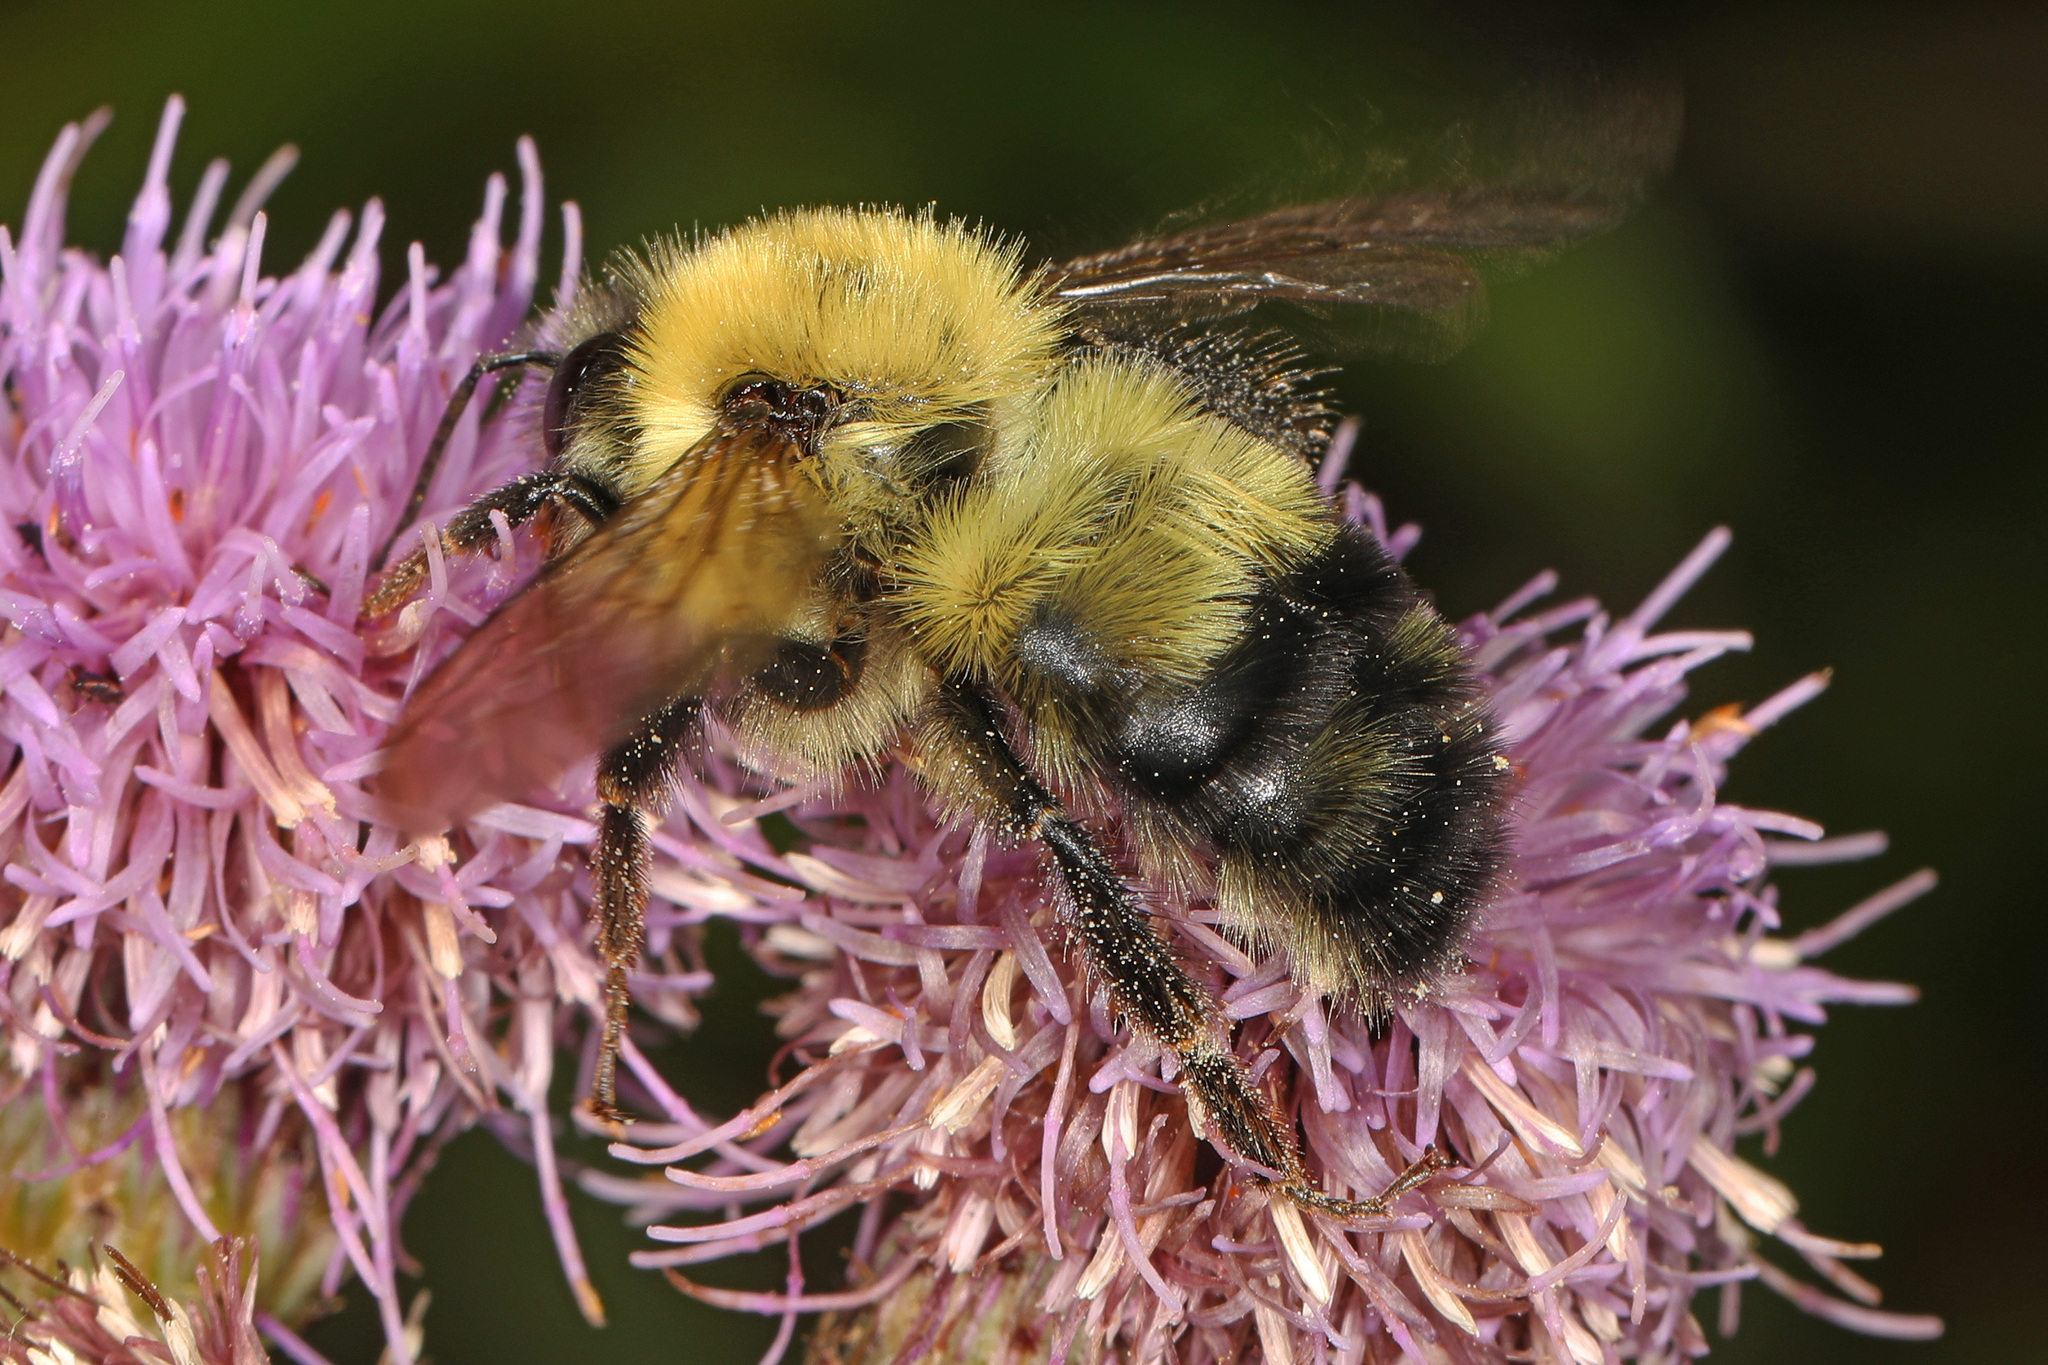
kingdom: Animalia
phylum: Arthropoda
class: Insecta
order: Hymenoptera
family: Apidae
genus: Bombus
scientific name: Bombus bimaculatus
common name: Two-spotted bumble bee
